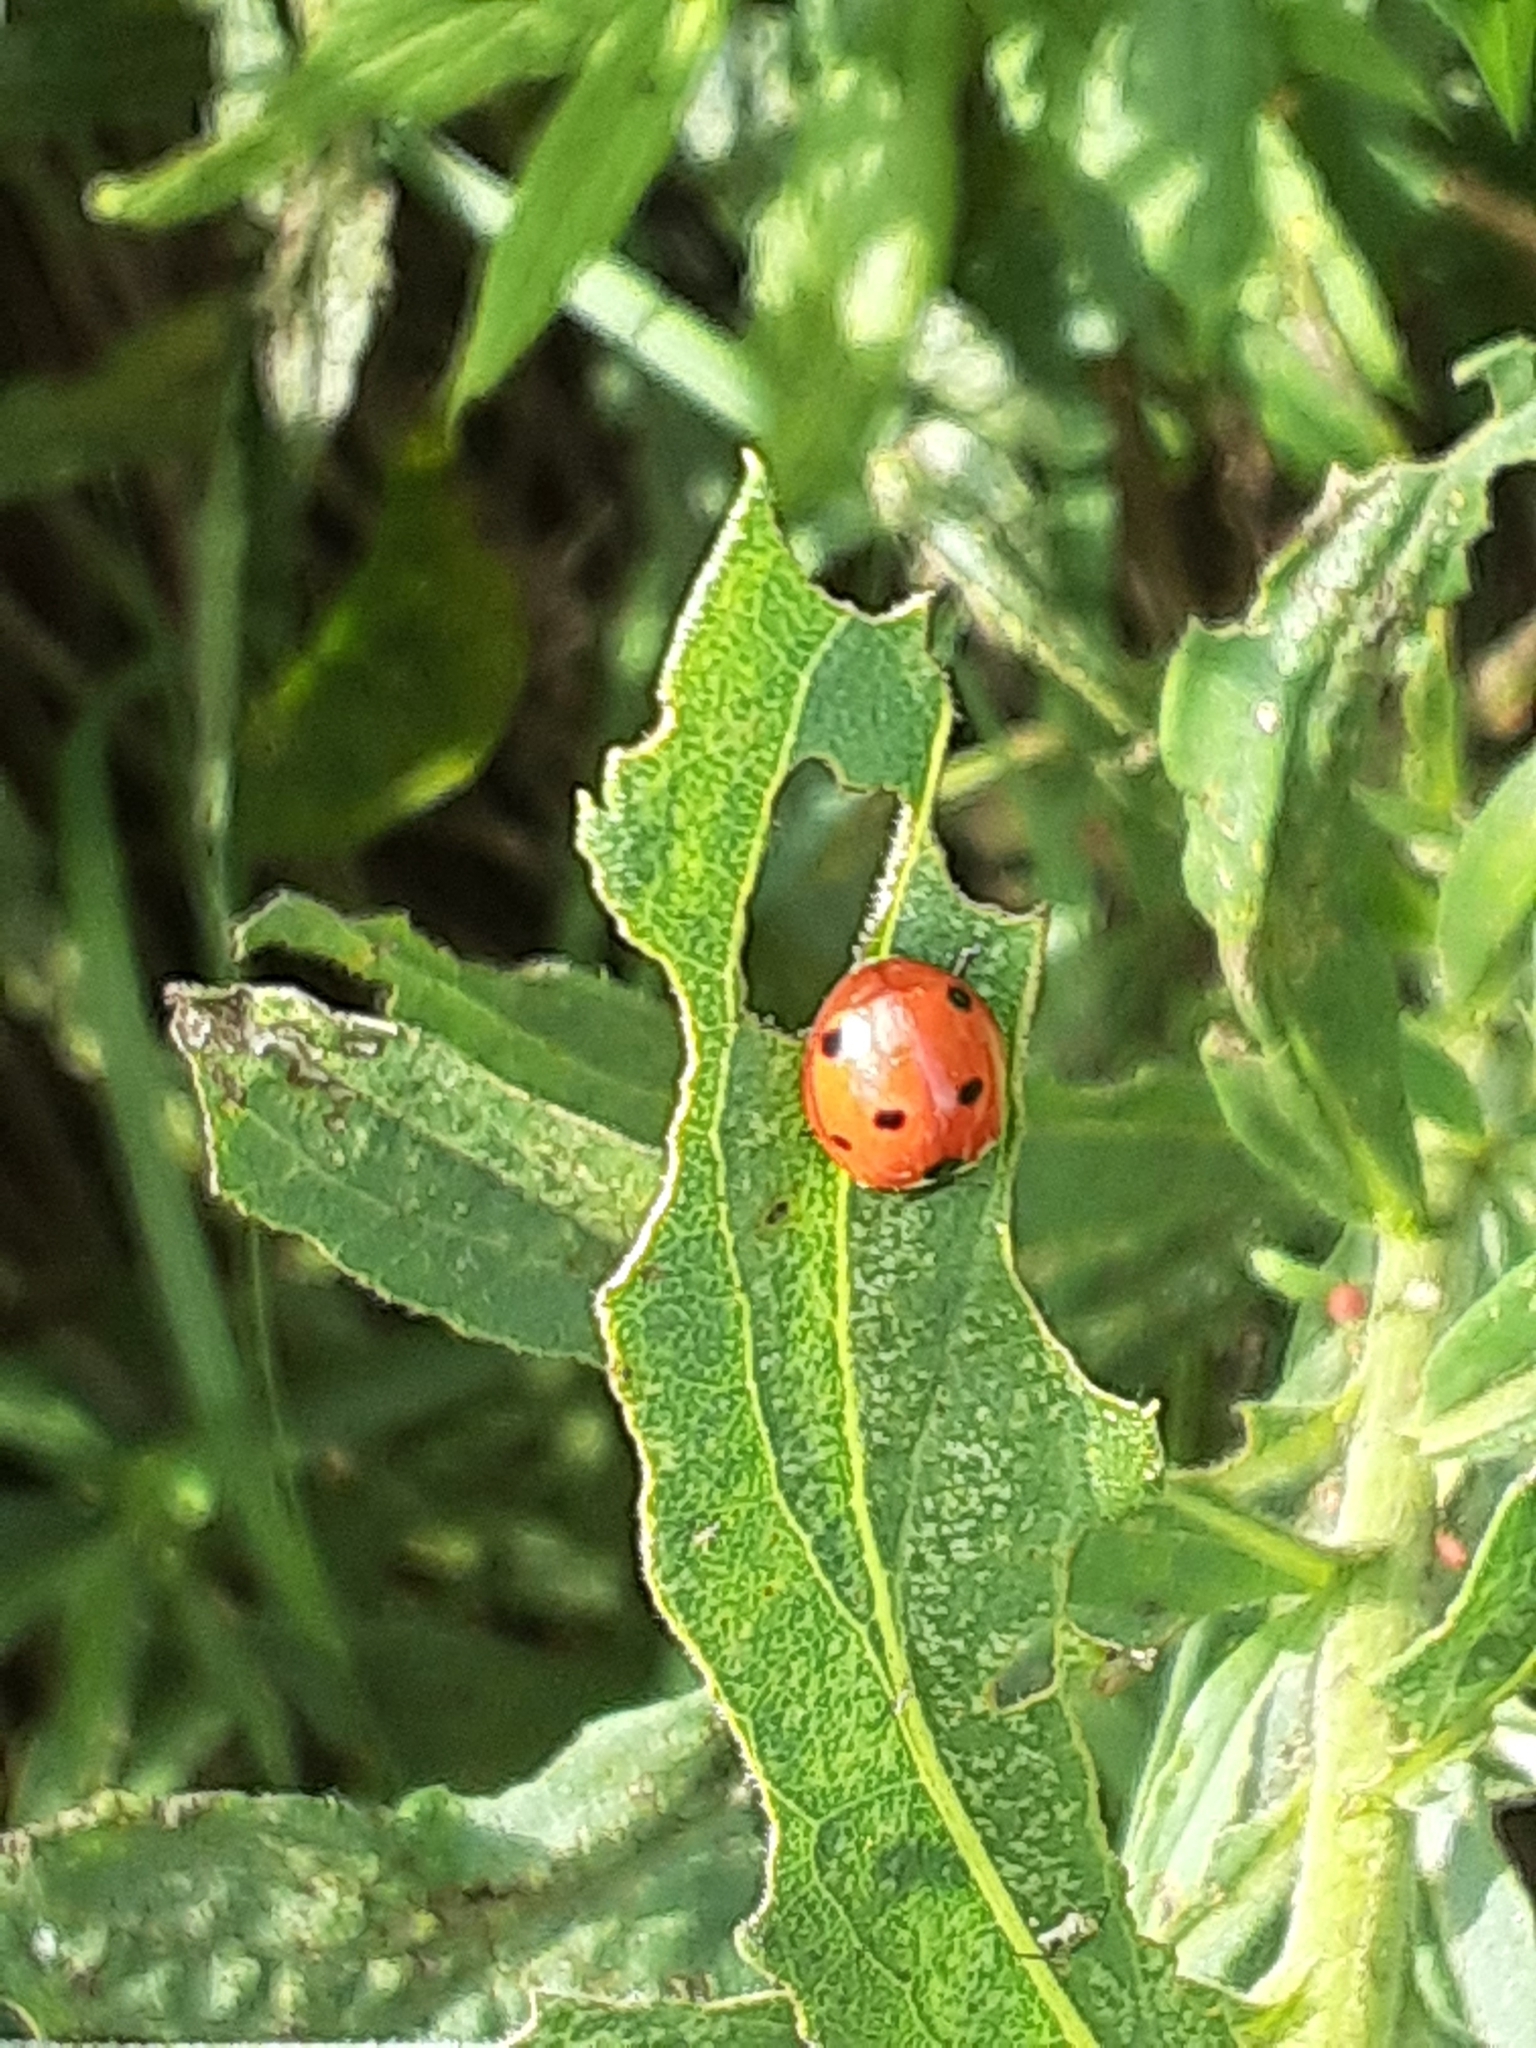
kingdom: Animalia
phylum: Arthropoda
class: Insecta
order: Coleoptera
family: Coccinellidae
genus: Coccinella
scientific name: Coccinella septempunctata
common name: Sevenspotted lady beetle
